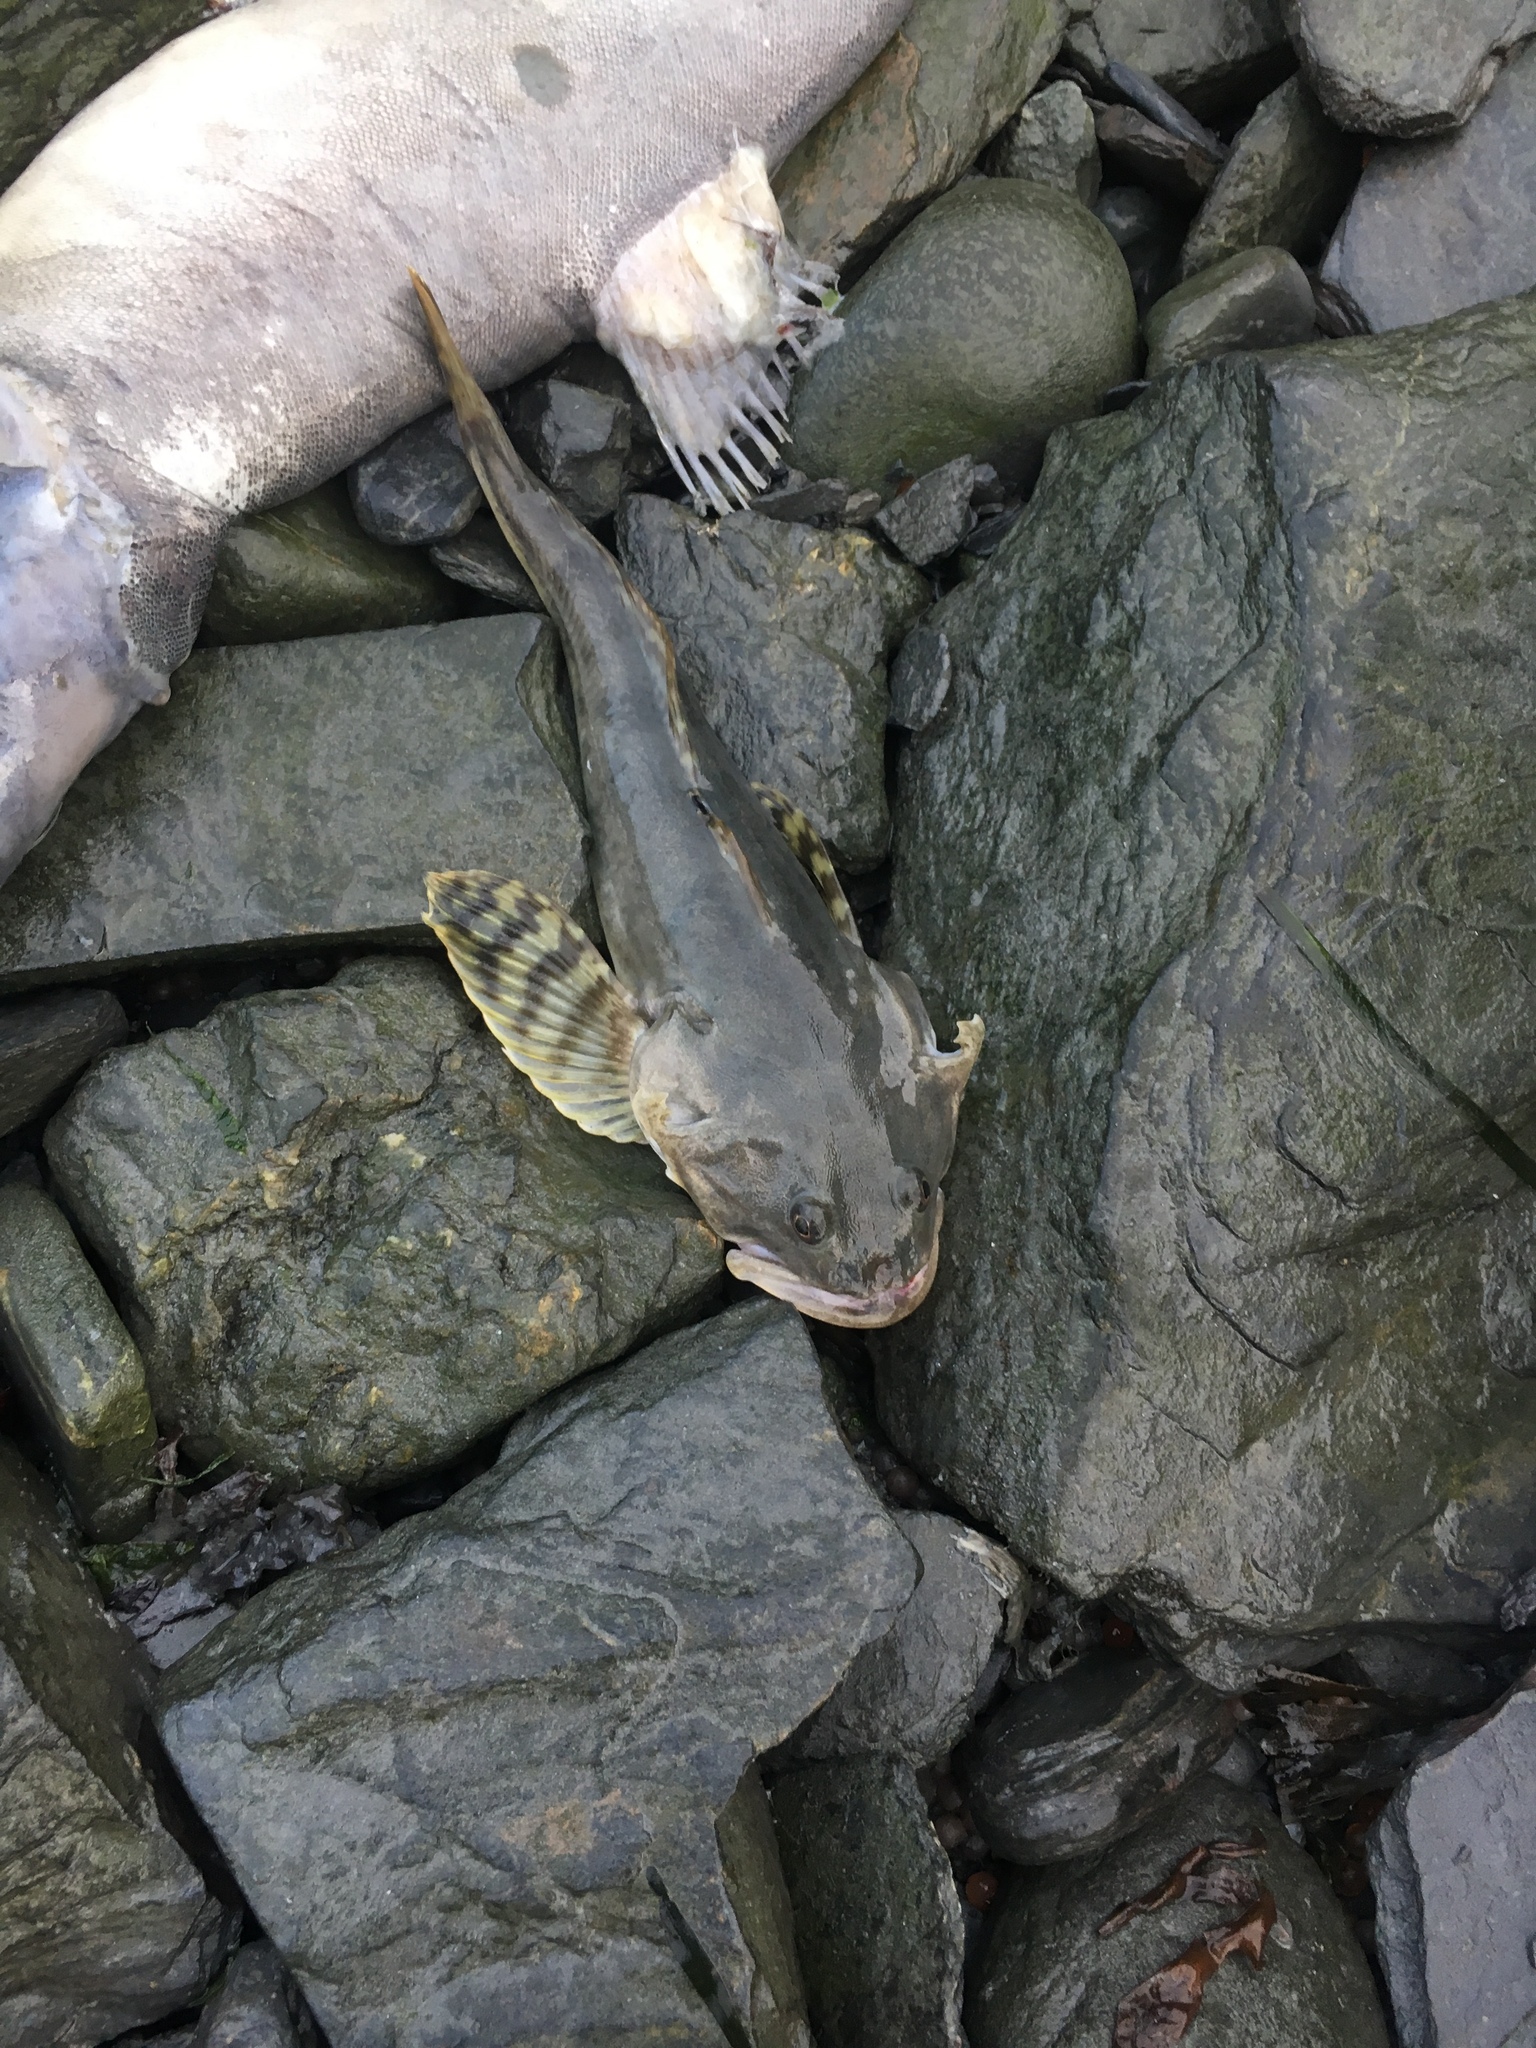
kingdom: Animalia
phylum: Chordata
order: Scorpaeniformes
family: Cottidae
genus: Leptocottus
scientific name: Leptocottus armatus
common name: Pacific staghorn sculpin
